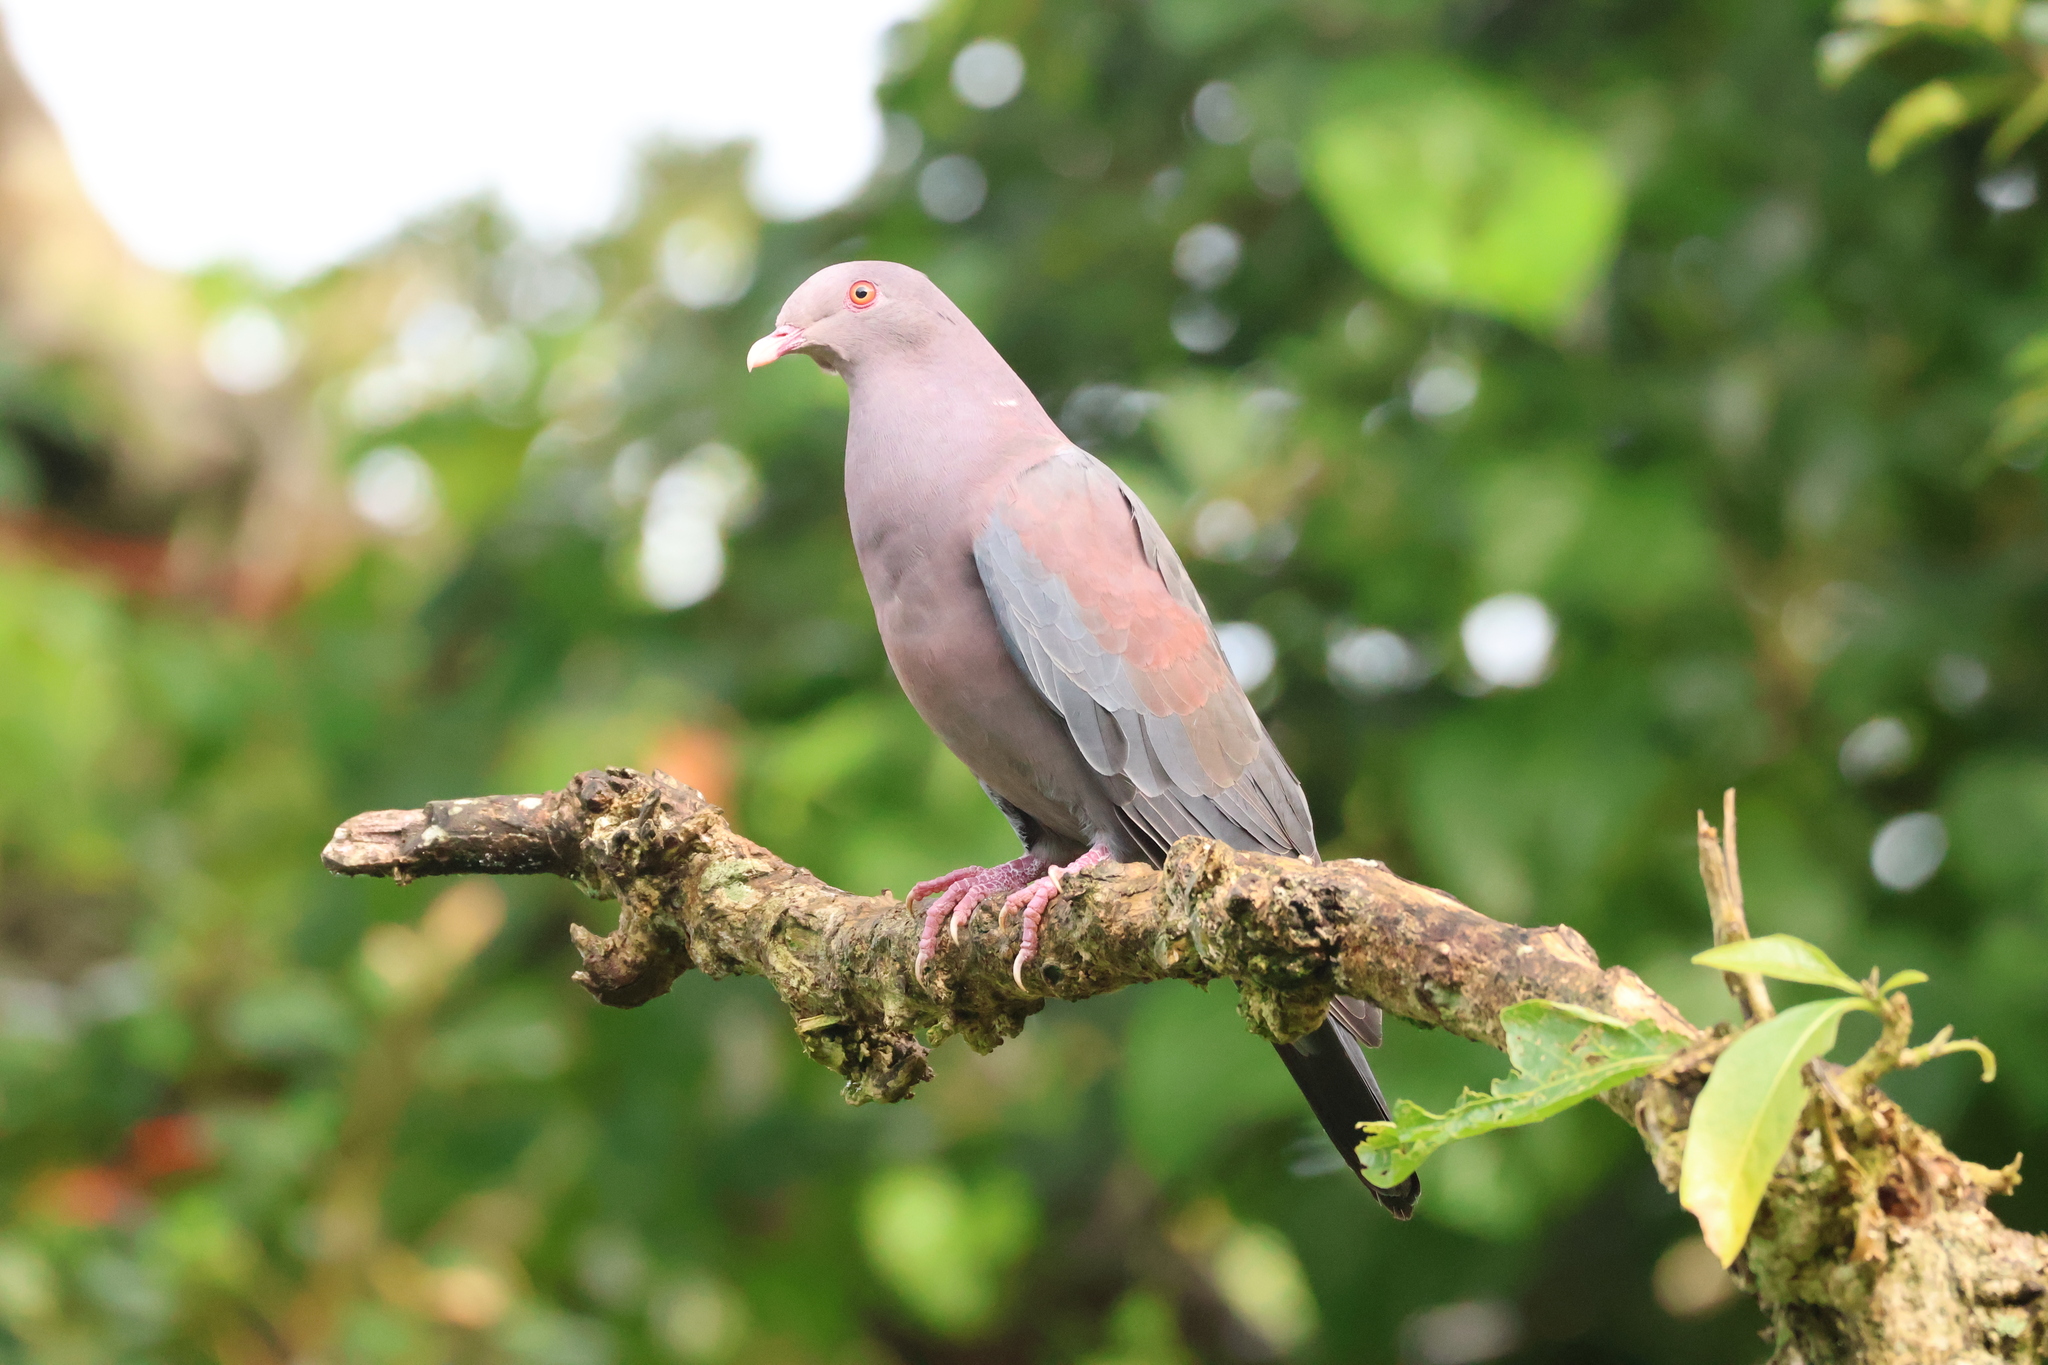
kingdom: Animalia
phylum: Chordata
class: Aves
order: Columbiformes
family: Columbidae
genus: Patagioenas
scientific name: Patagioenas flavirostris
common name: Red-billed pigeon
